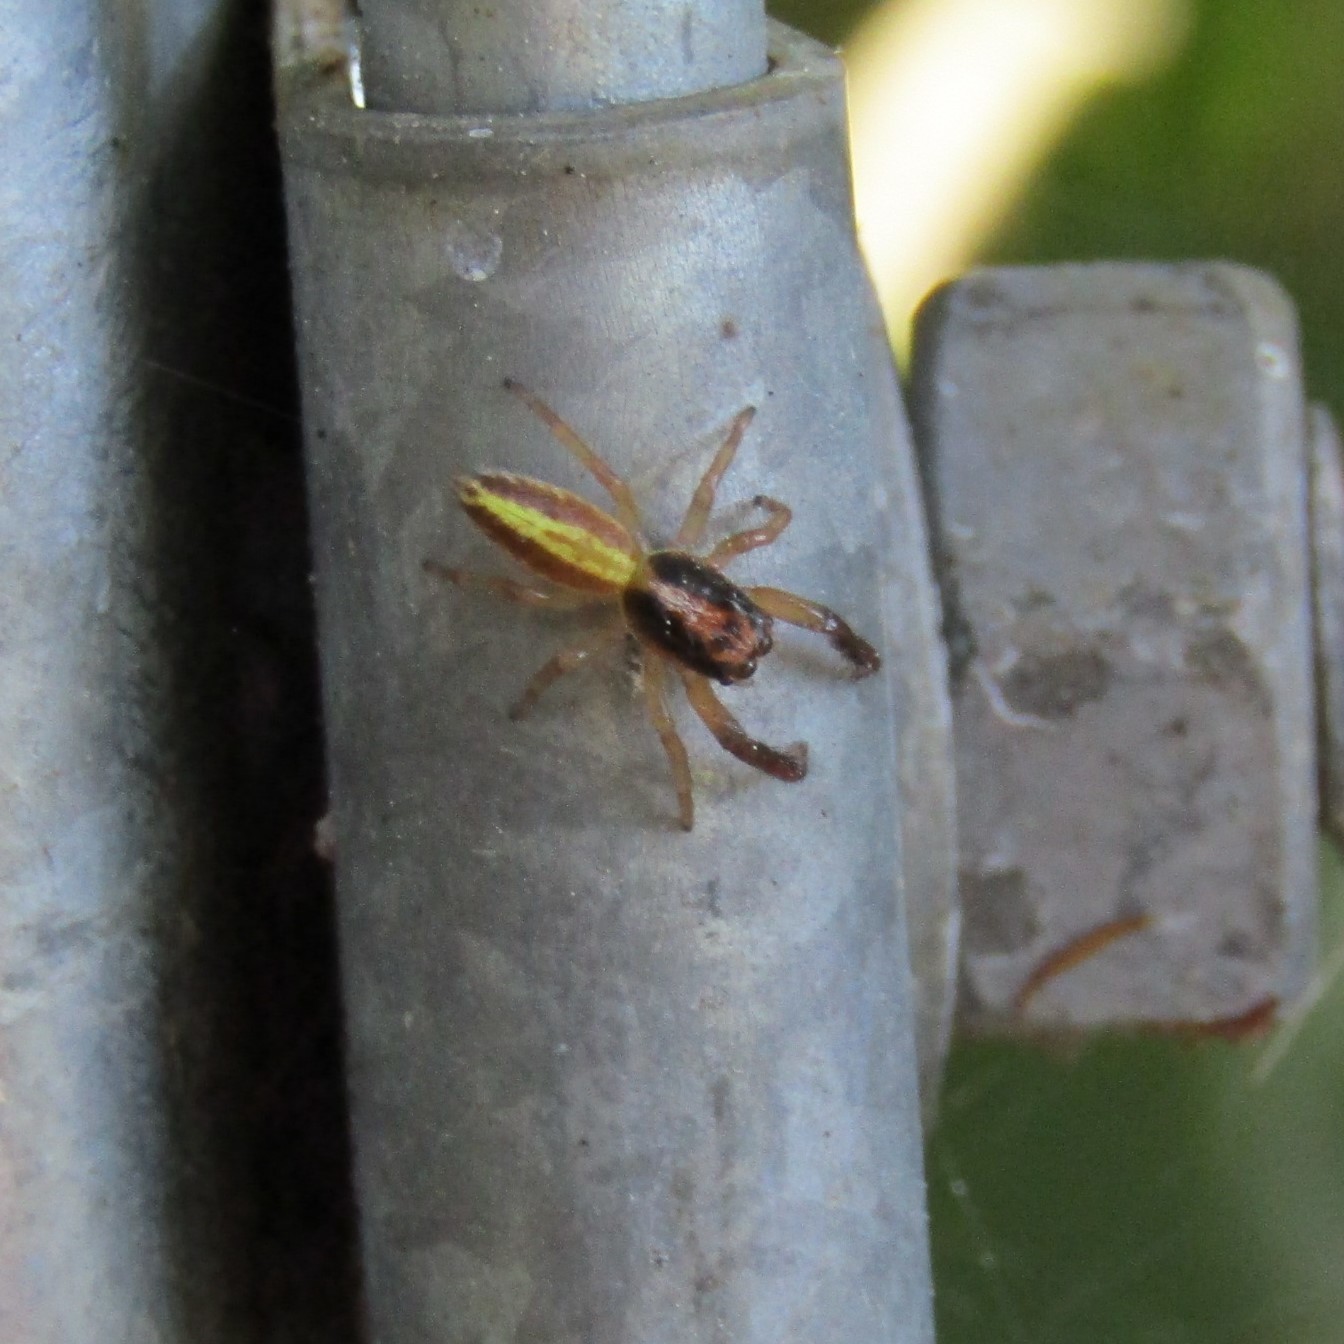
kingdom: Animalia
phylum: Arthropoda
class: Arachnida
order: Araneae
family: Salticidae
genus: Trite
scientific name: Trite planiceps
